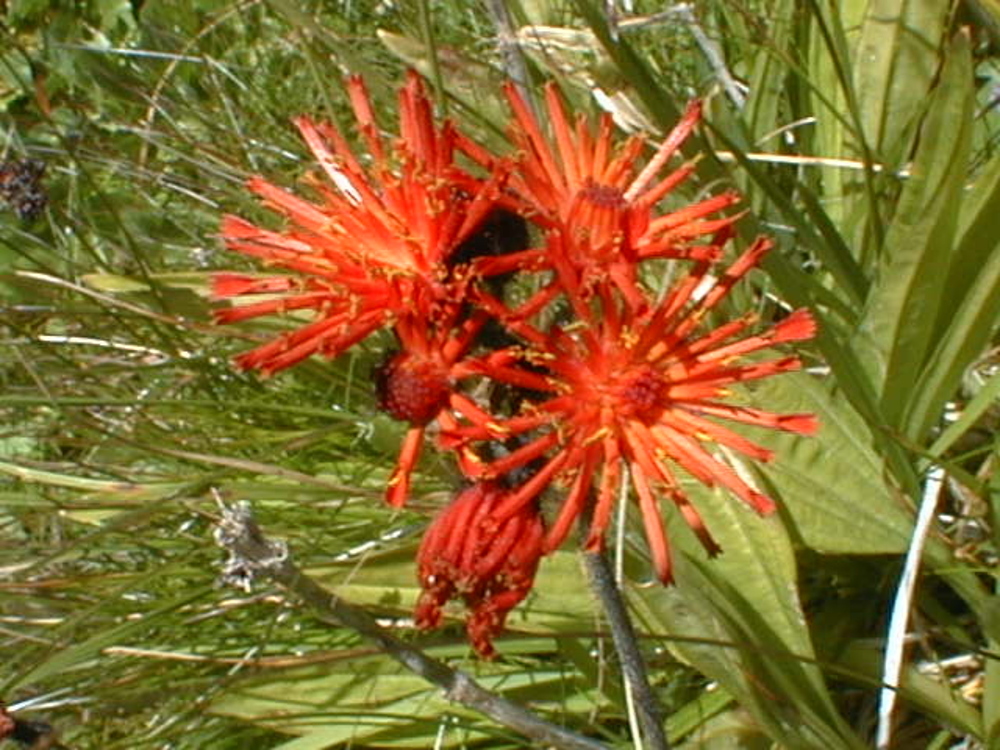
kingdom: Plantae
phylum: Tracheophyta
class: Magnoliopsida
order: Asterales
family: Asteraceae
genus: Pilosella
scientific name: Pilosella aurantiaca
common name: Fox-and-cubs
